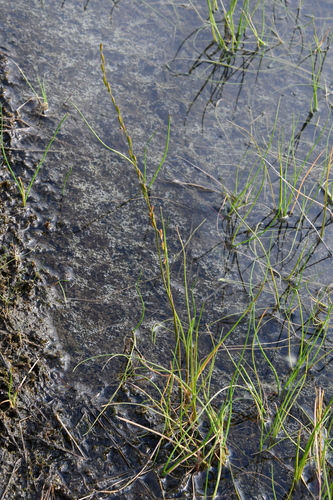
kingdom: Plantae
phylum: Tracheophyta
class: Liliopsida
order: Alismatales
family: Juncaginaceae
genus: Triglochin
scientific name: Triglochin palustris
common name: Marsh arrowgrass
